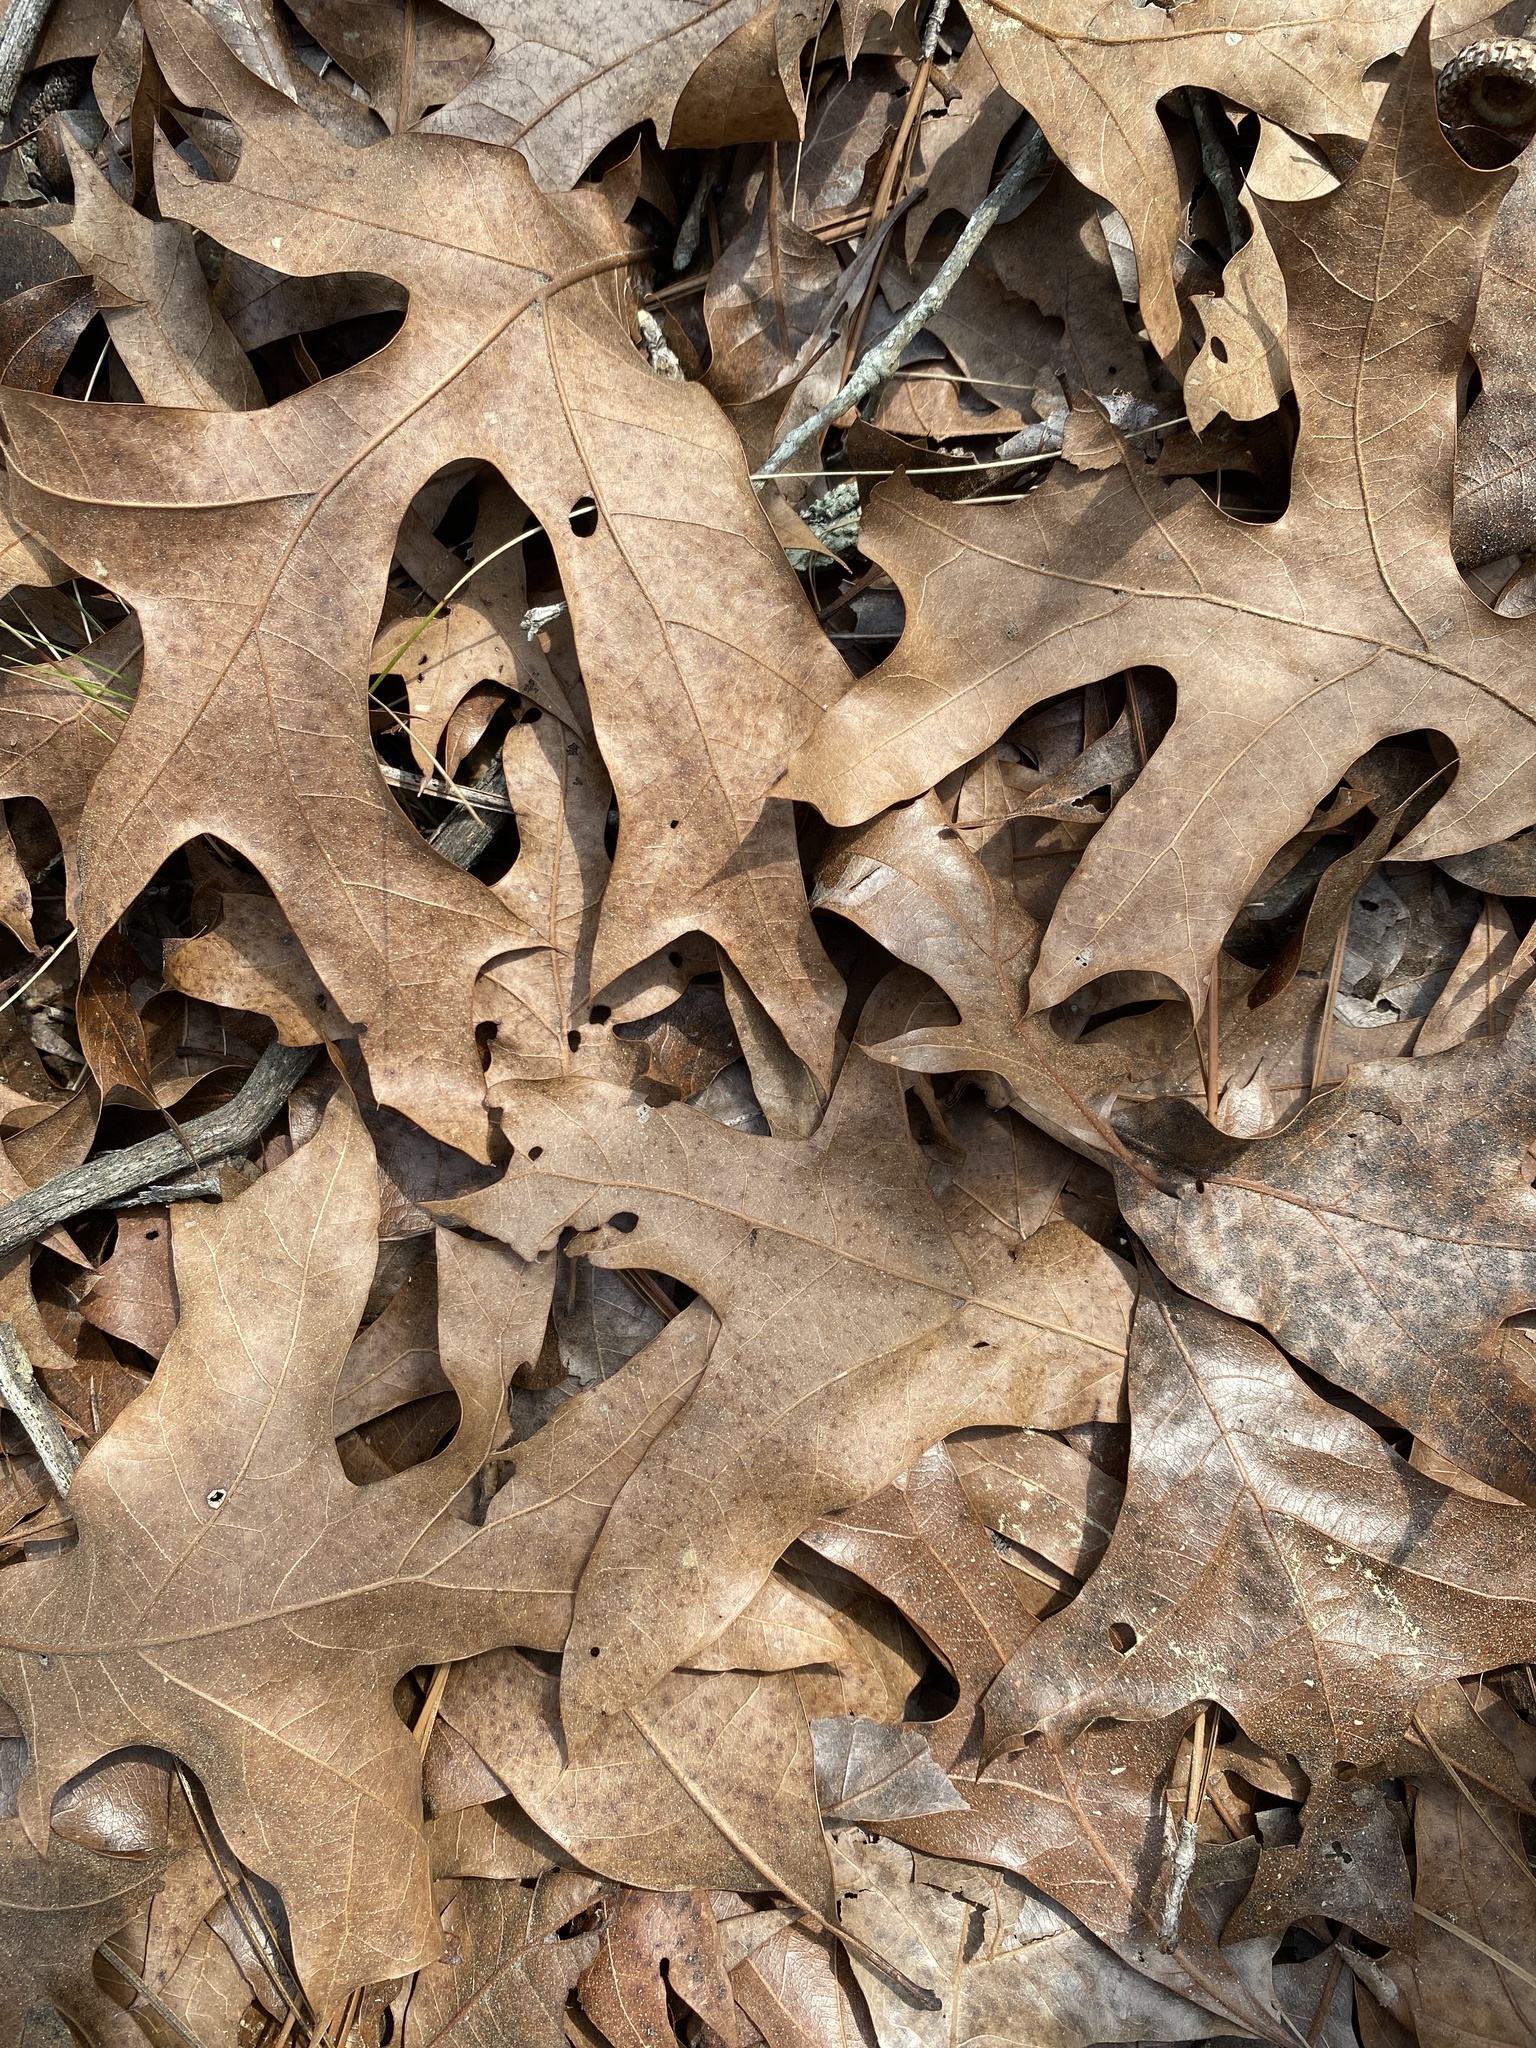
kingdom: Plantae
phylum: Tracheophyta
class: Magnoliopsida
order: Fagales
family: Fagaceae
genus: Quercus
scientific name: Quercus laevis
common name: Turkey oak
